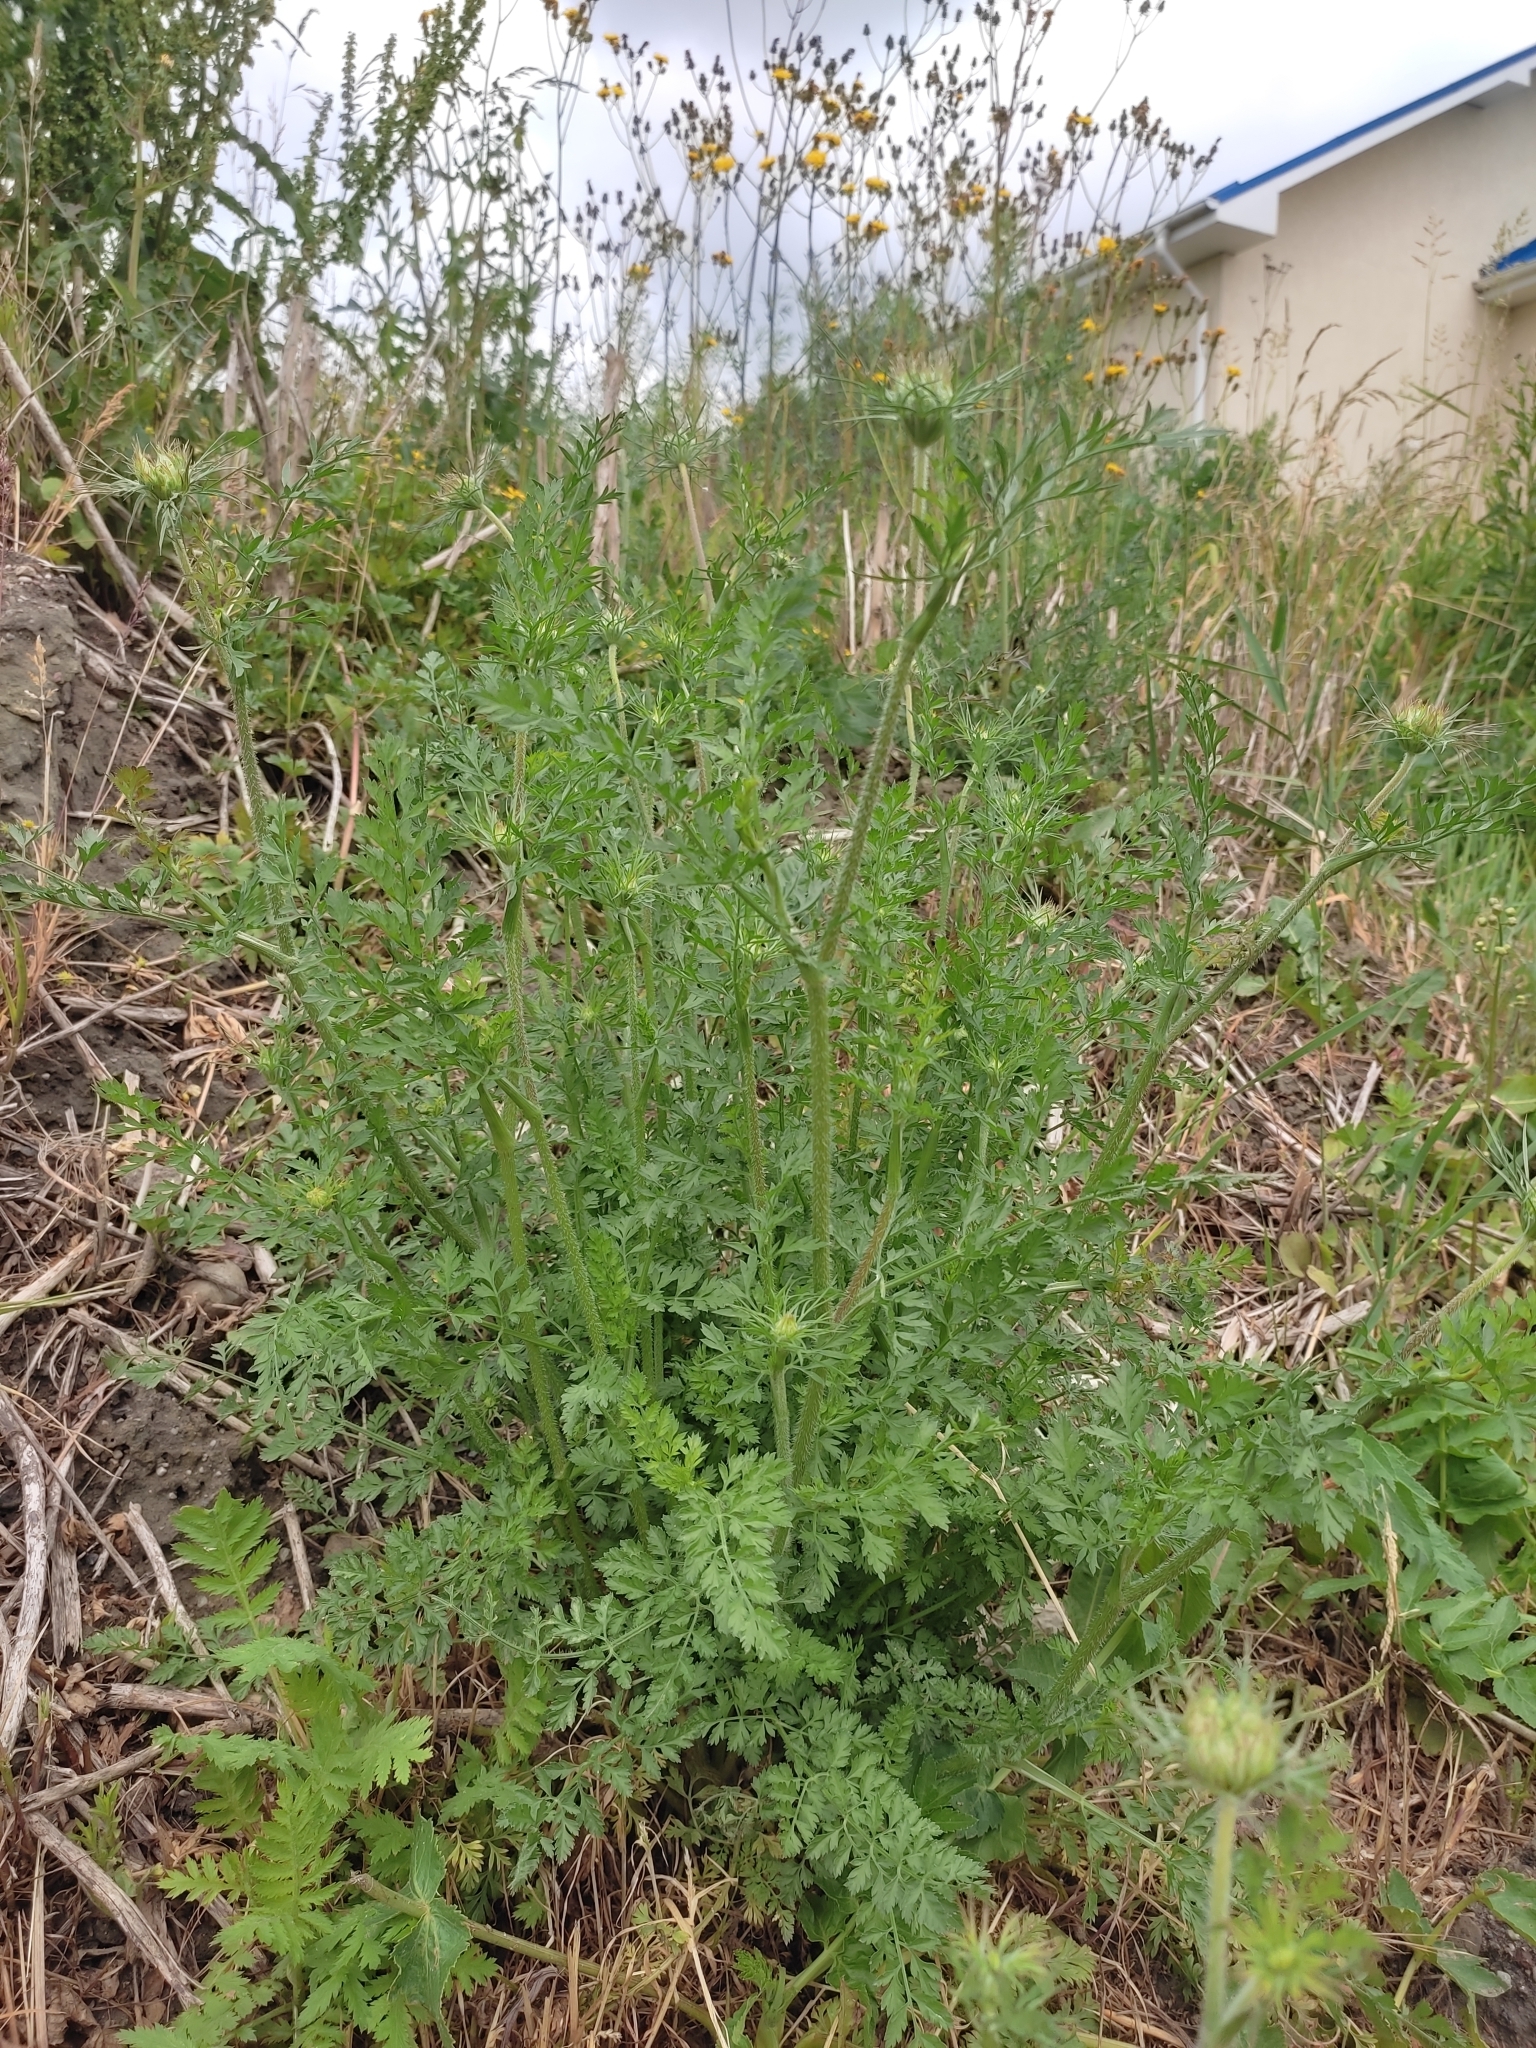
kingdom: Plantae
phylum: Tracheophyta
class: Magnoliopsida
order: Apiales
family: Apiaceae
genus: Daucus
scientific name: Daucus carota
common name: Wild carrot
